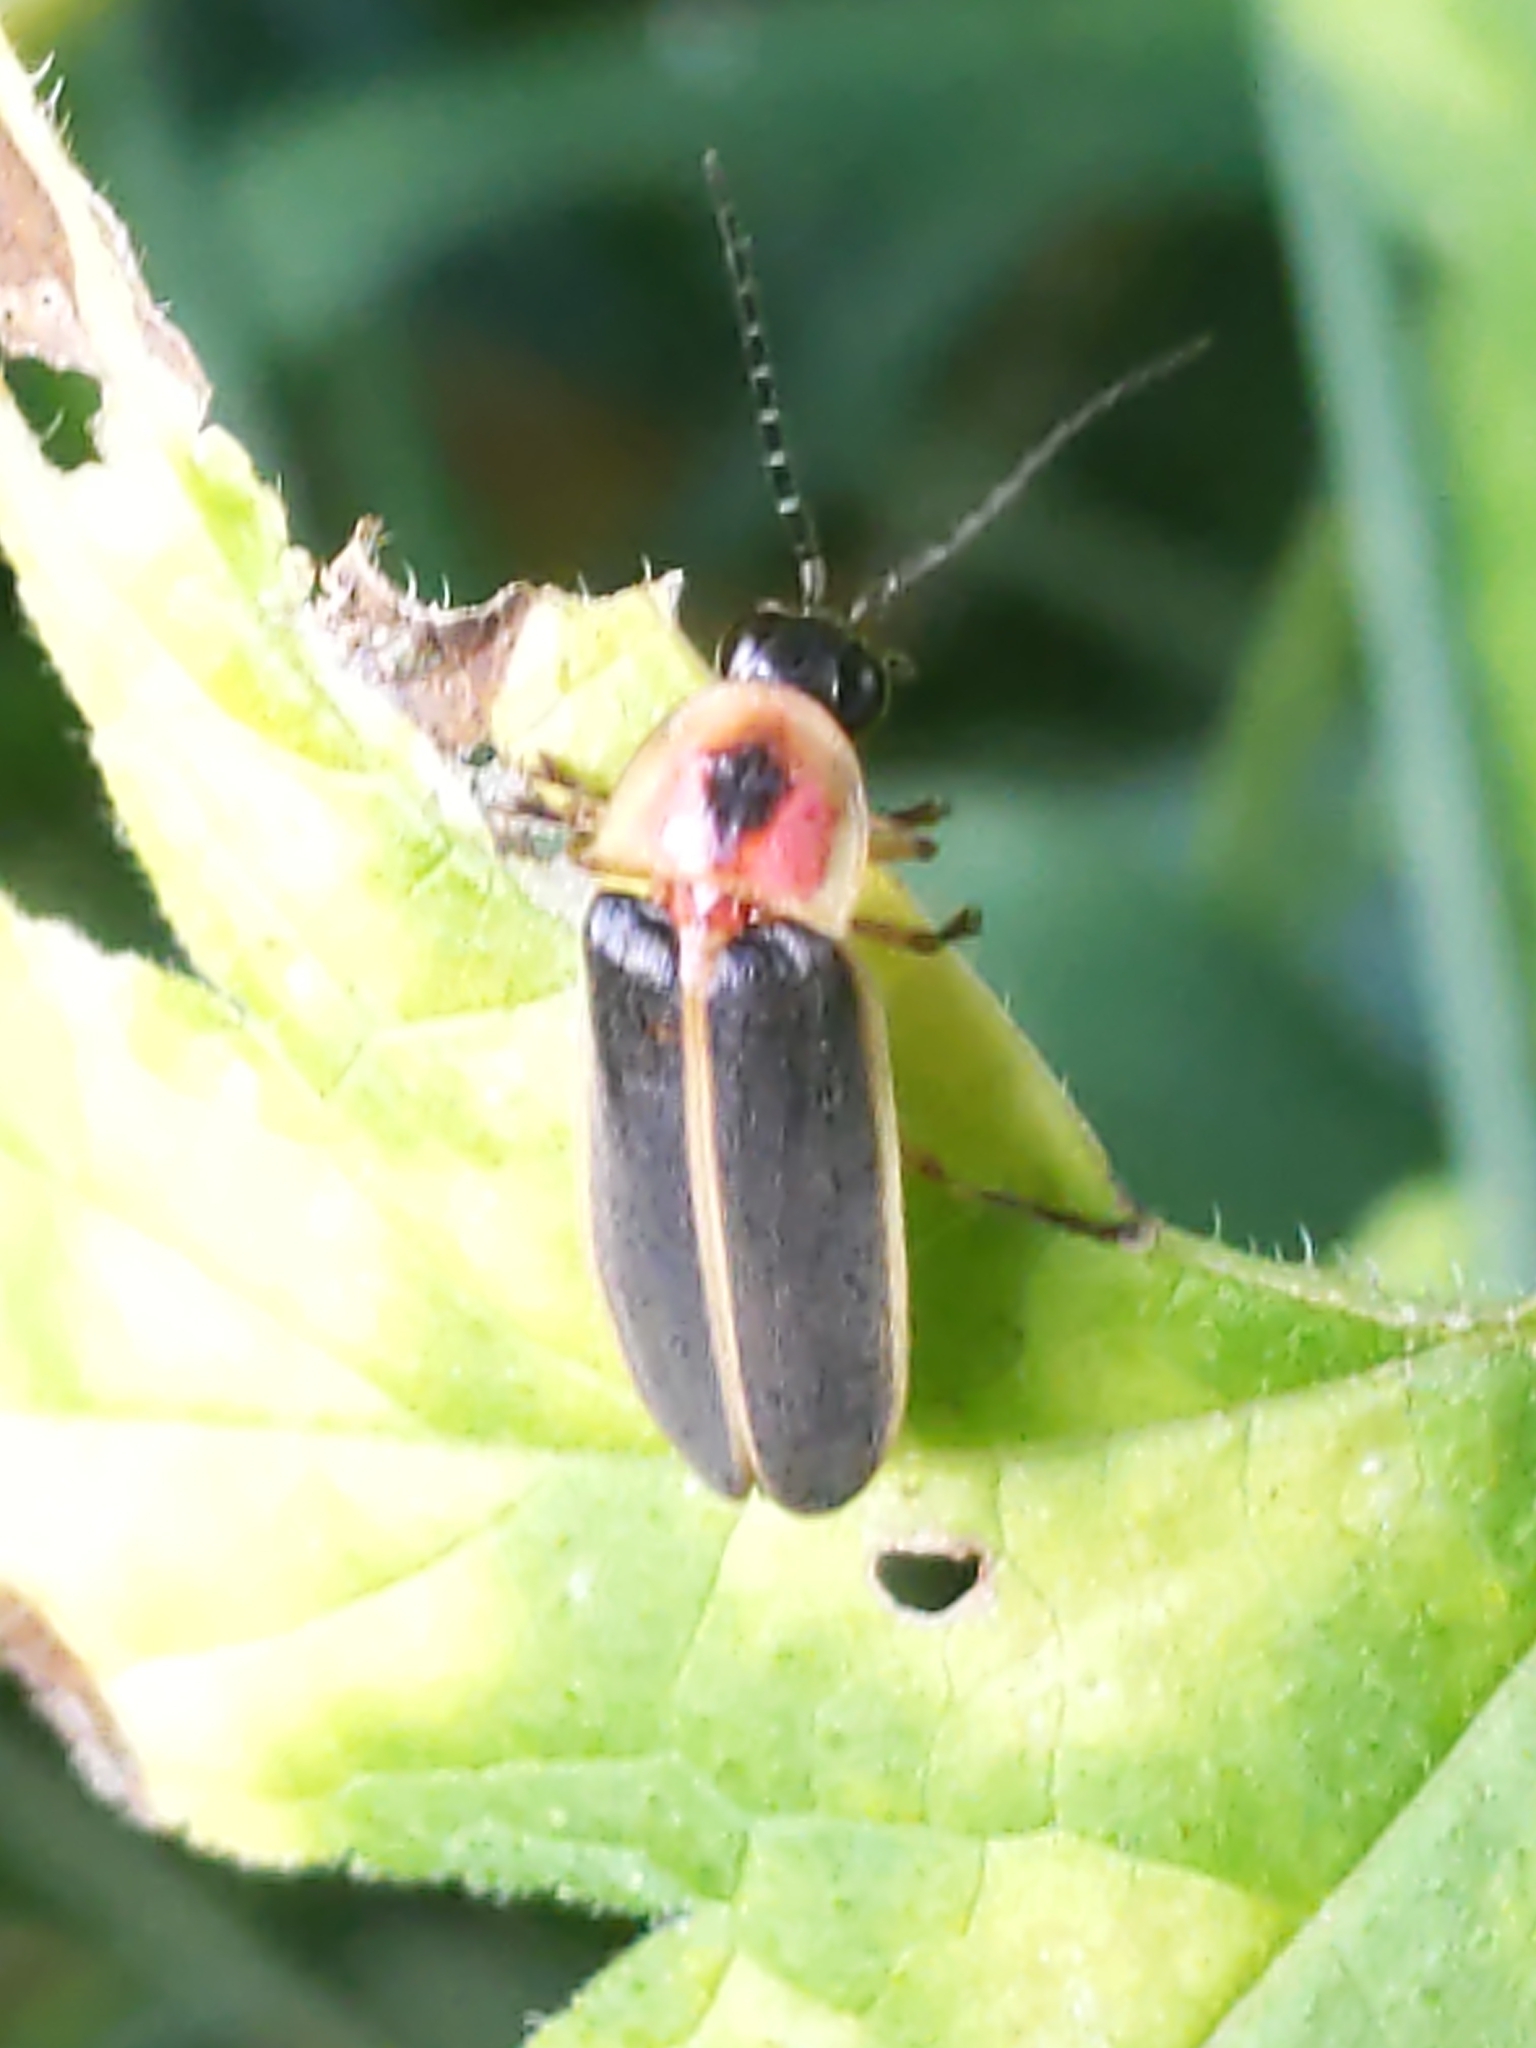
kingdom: Animalia
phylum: Arthropoda
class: Insecta
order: Coleoptera
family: Lampyridae
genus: Photinus
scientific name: Photinus pyralis
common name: Big dipper firefly
